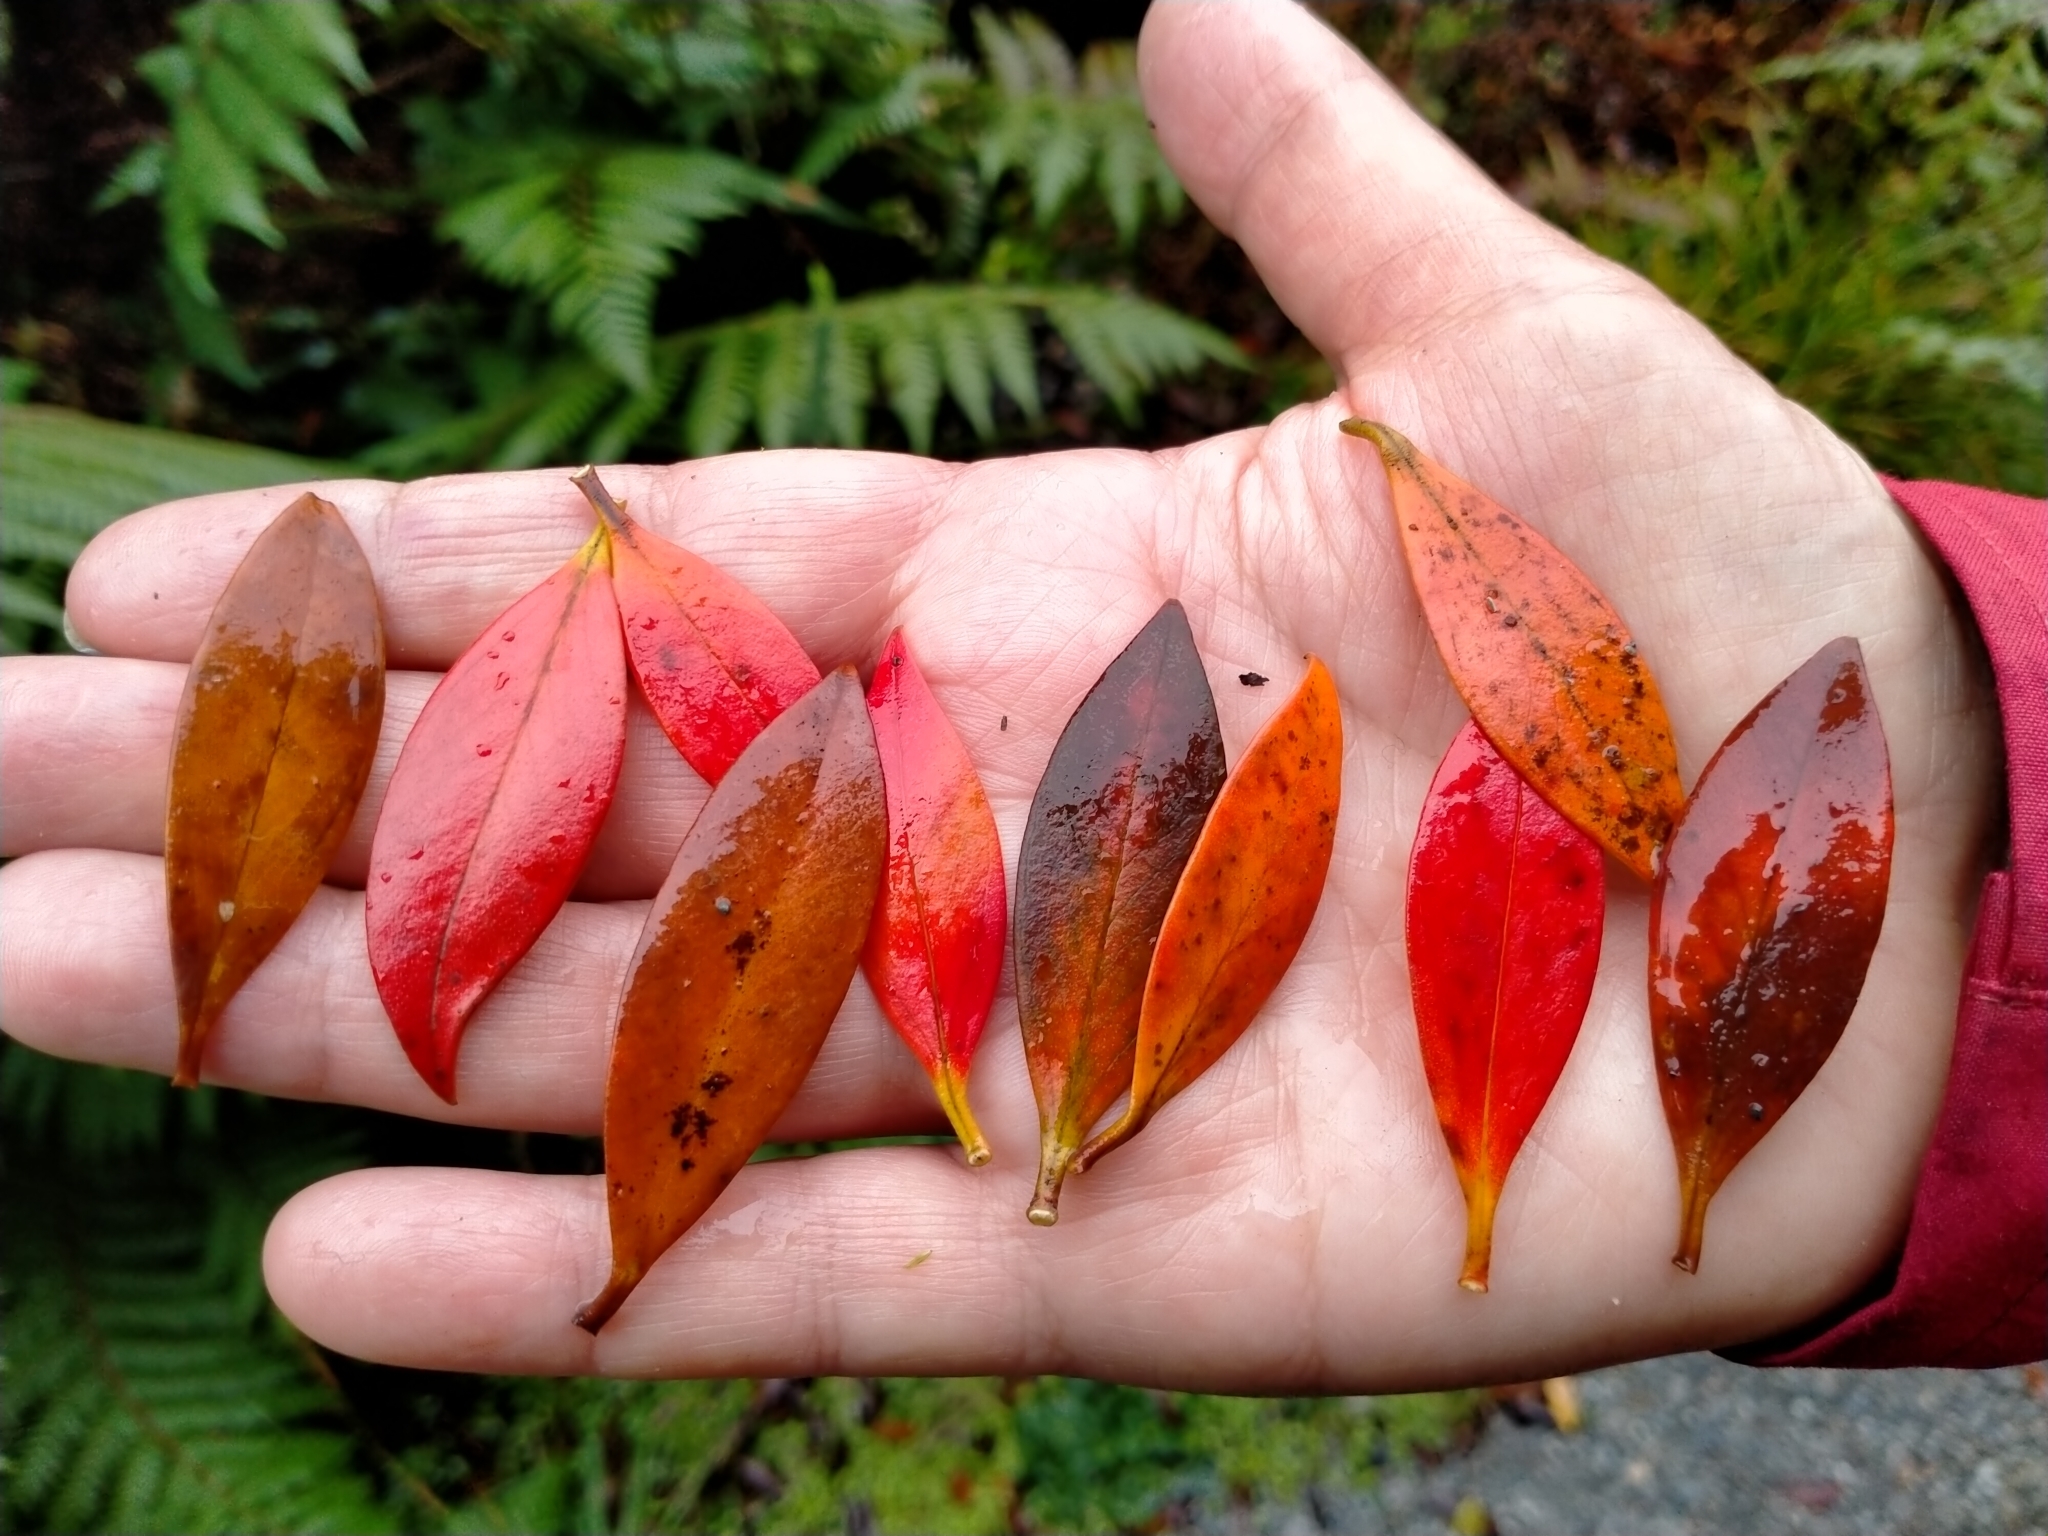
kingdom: Plantae
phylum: Tracheophyta
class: Magnoliopsida
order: Myrtales
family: Myrtaceae
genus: Metrosideros
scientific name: Metrosideros umbellata
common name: Southern rata
